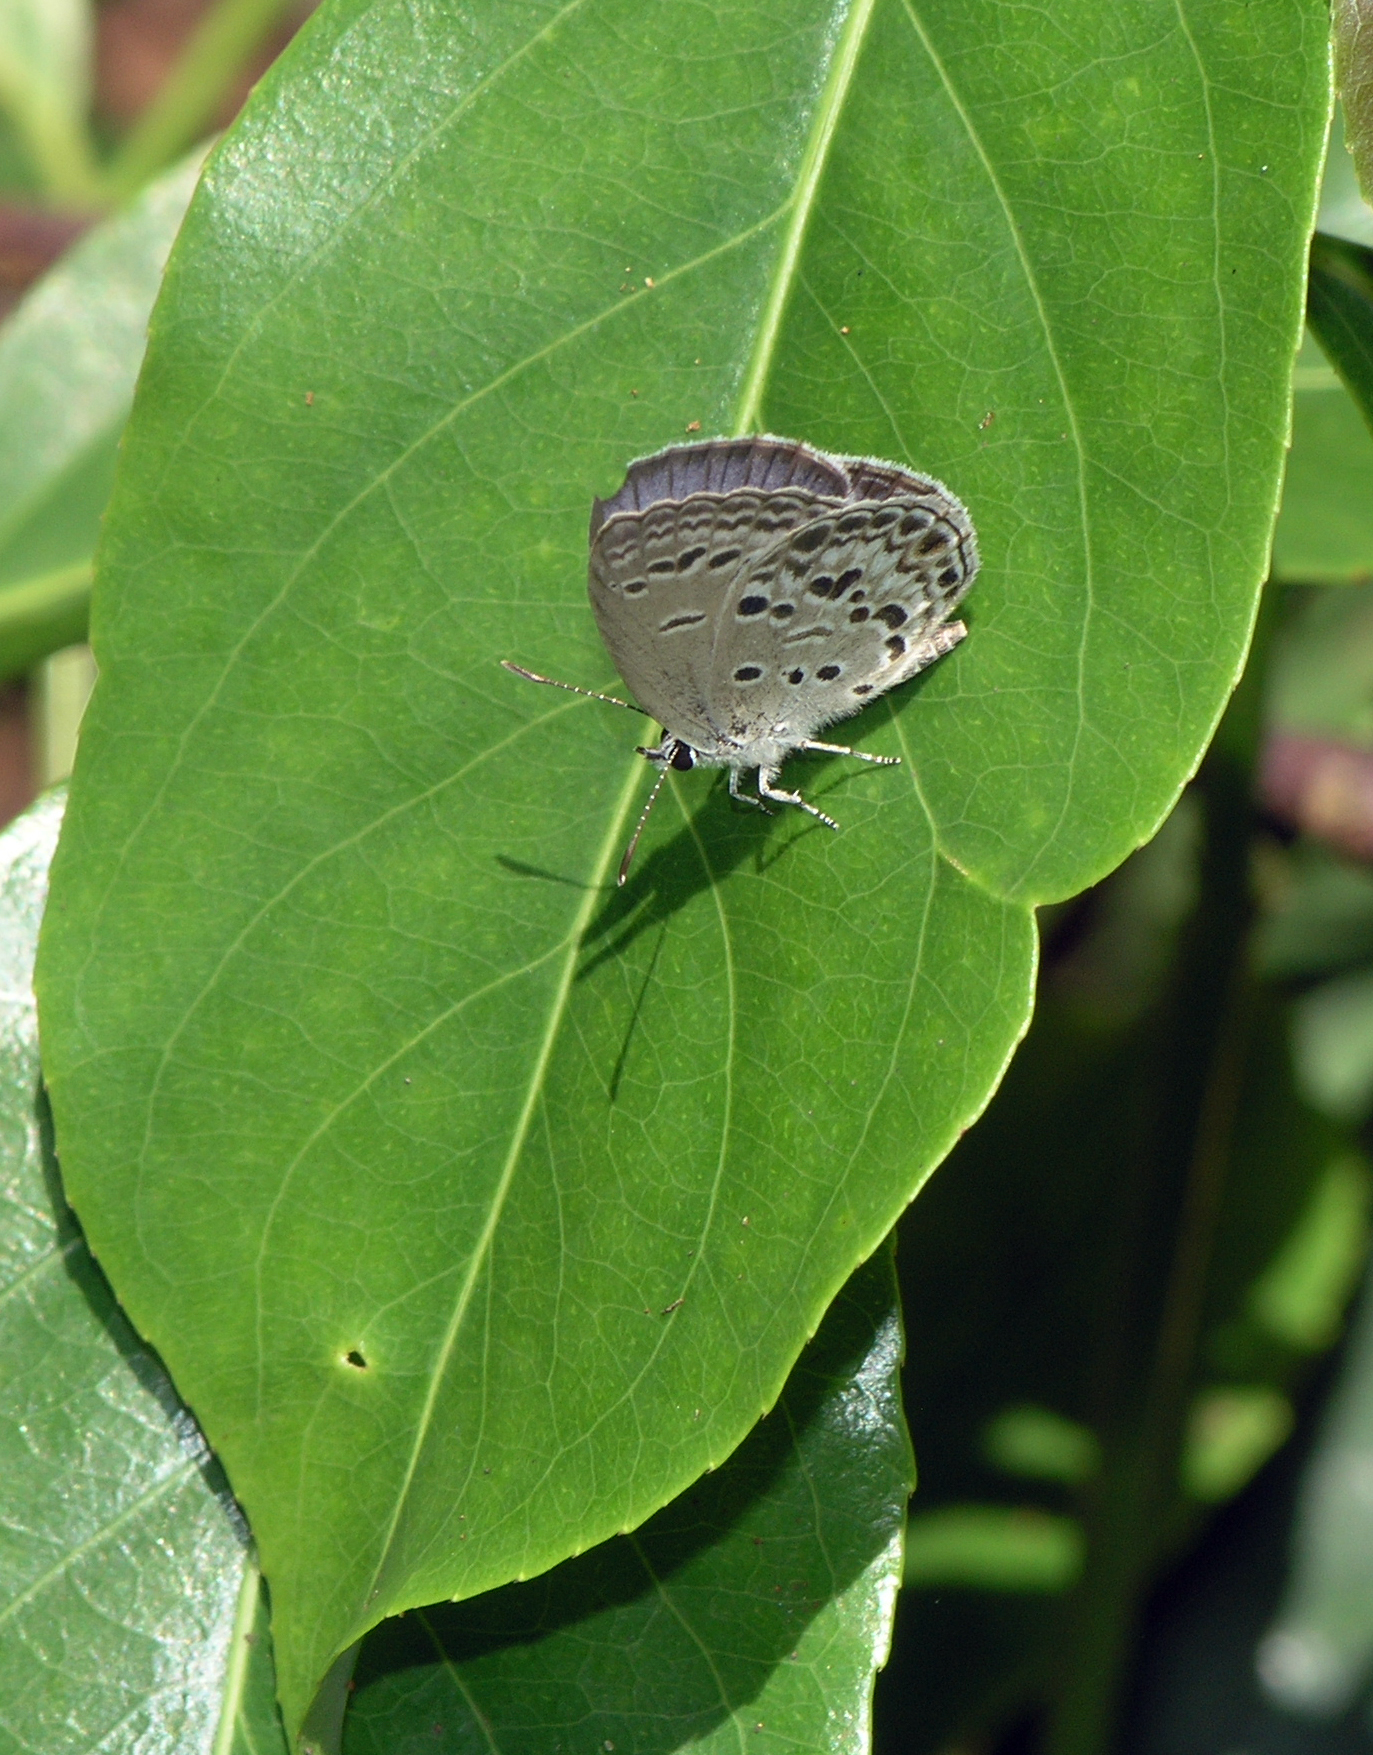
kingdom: Animalia
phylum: Arthropoda
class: Insecta
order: Lepidoptera
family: Lycaenidae
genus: Chilades
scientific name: Chilades laius
